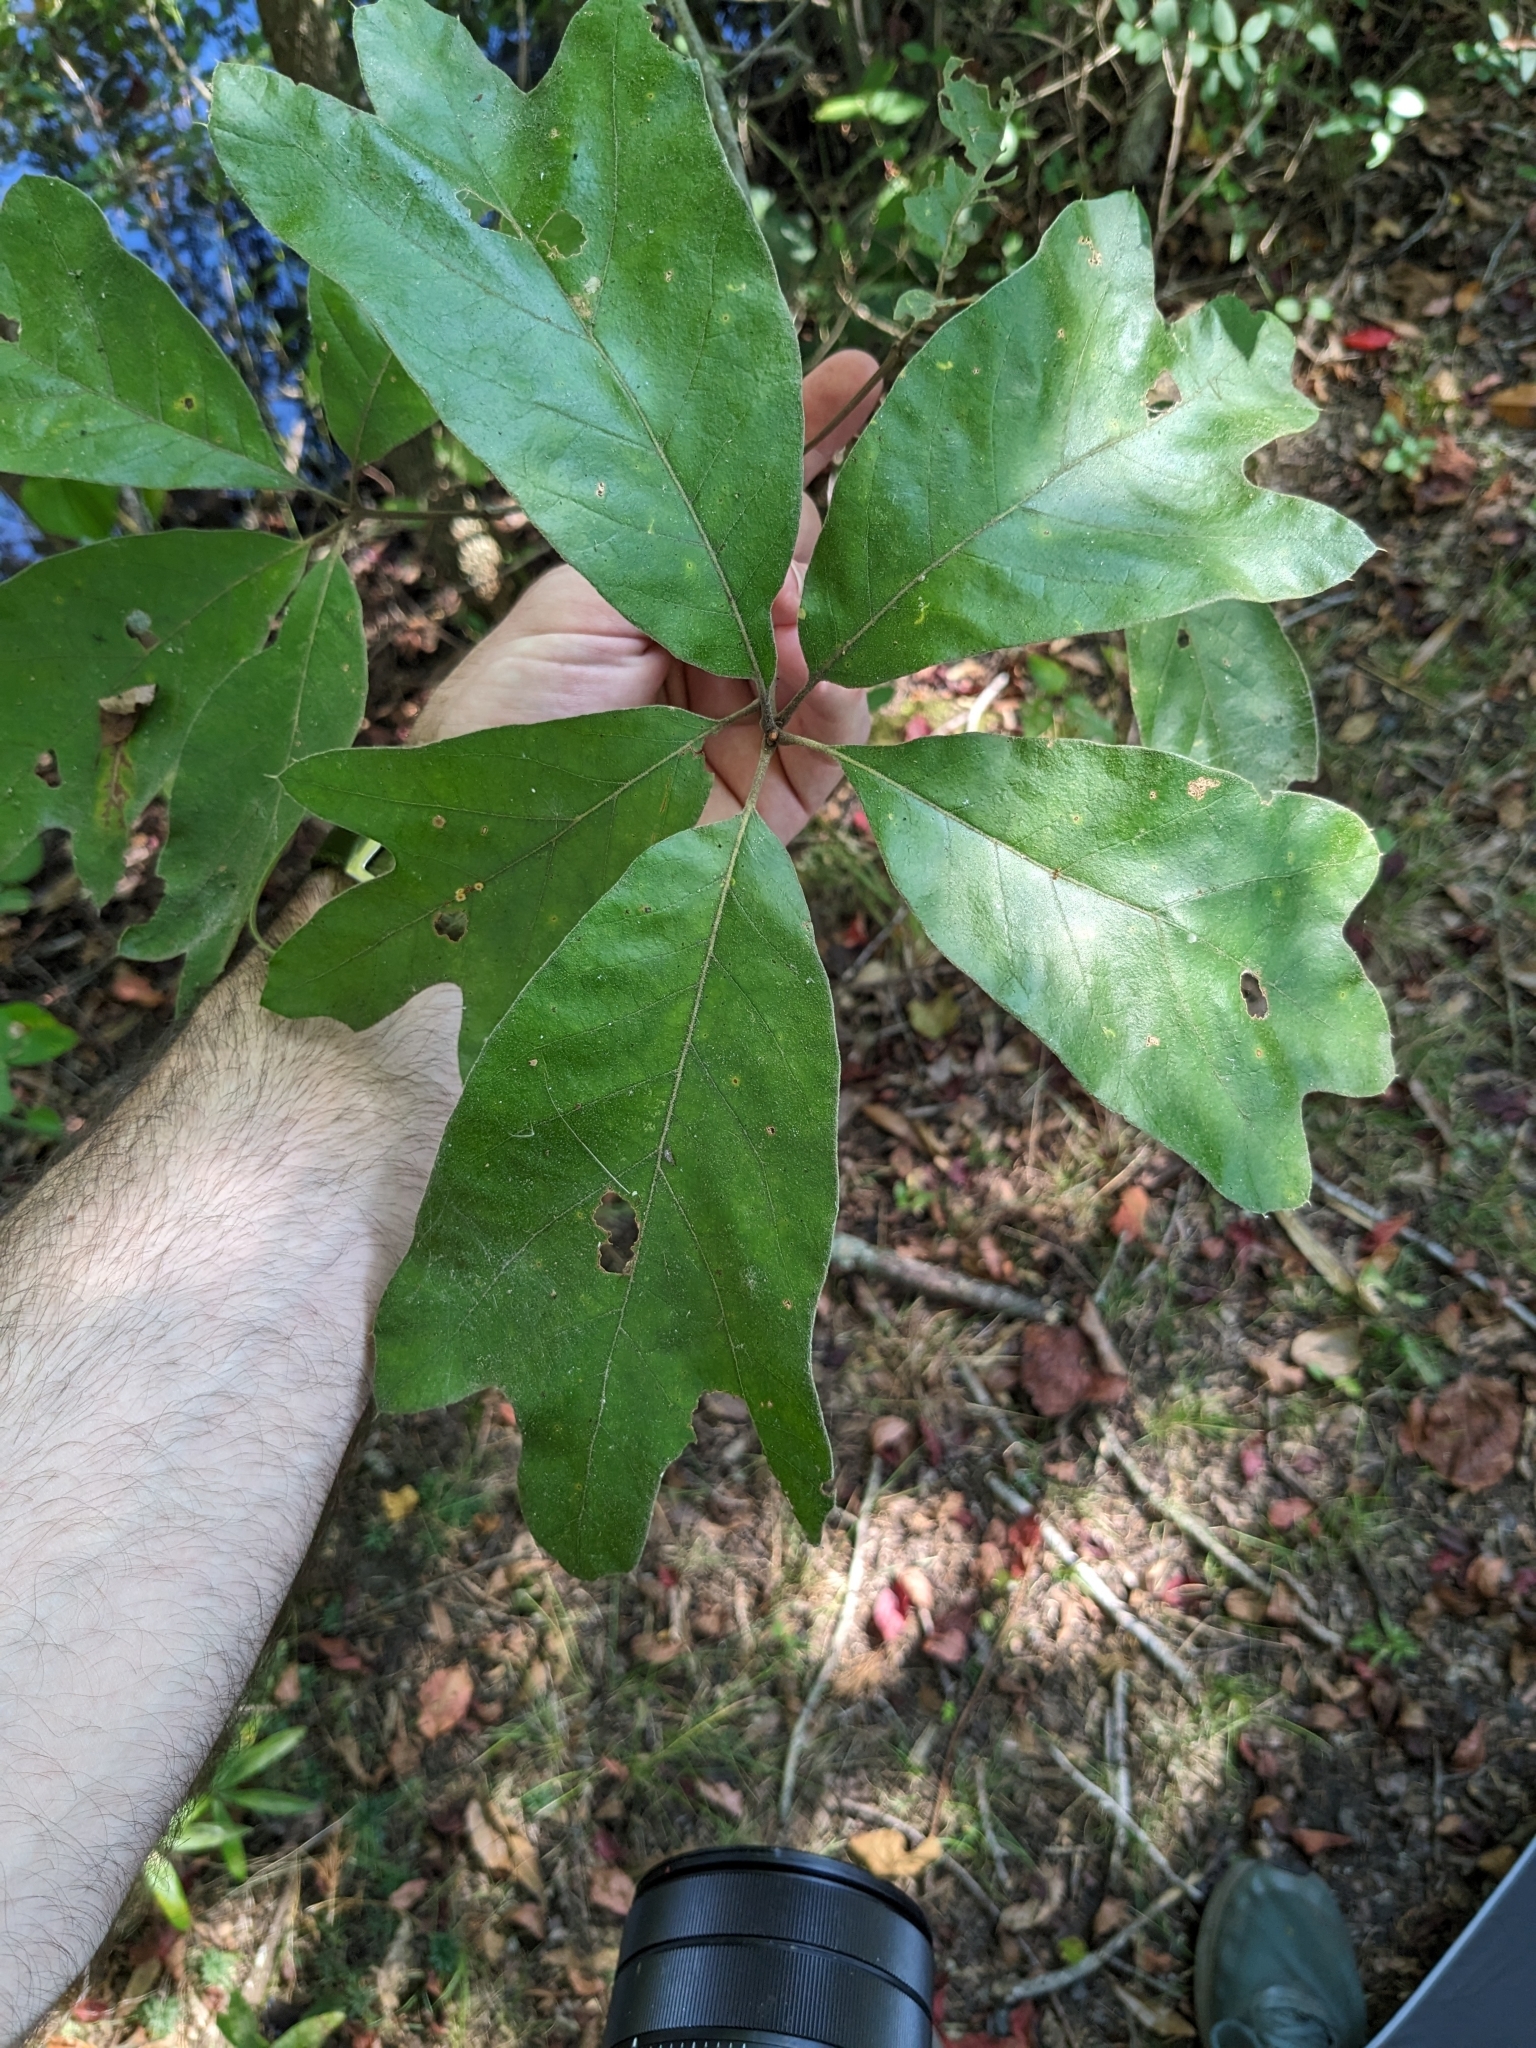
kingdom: Plantae
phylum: Tracheophyta
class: Magnoliopsida
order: Fagales
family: Fagaceae
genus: Quercus
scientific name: Quercus marilandica
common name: Blackjack oak
